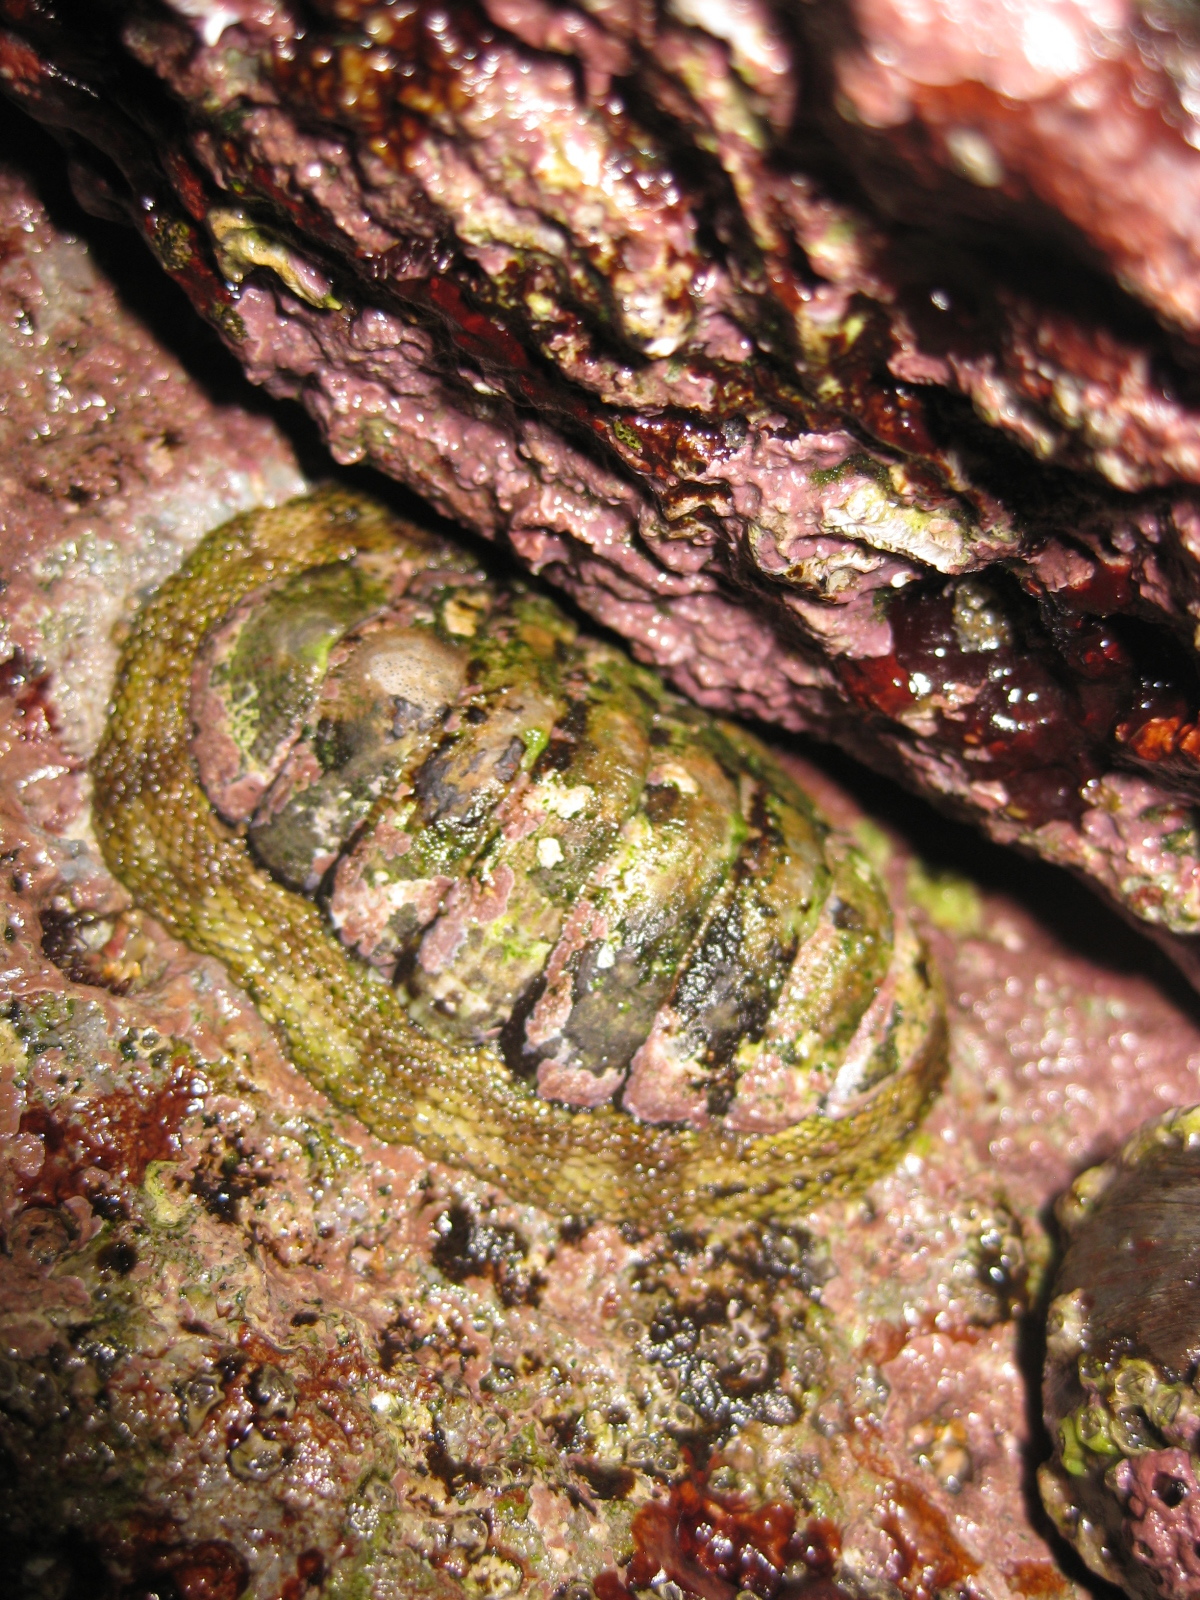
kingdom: Animalia
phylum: Mollusca
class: Polyplacophora
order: Chitonida
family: Chitonidae
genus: Sypharochiton
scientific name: Sypharochiton pelliserpentis
